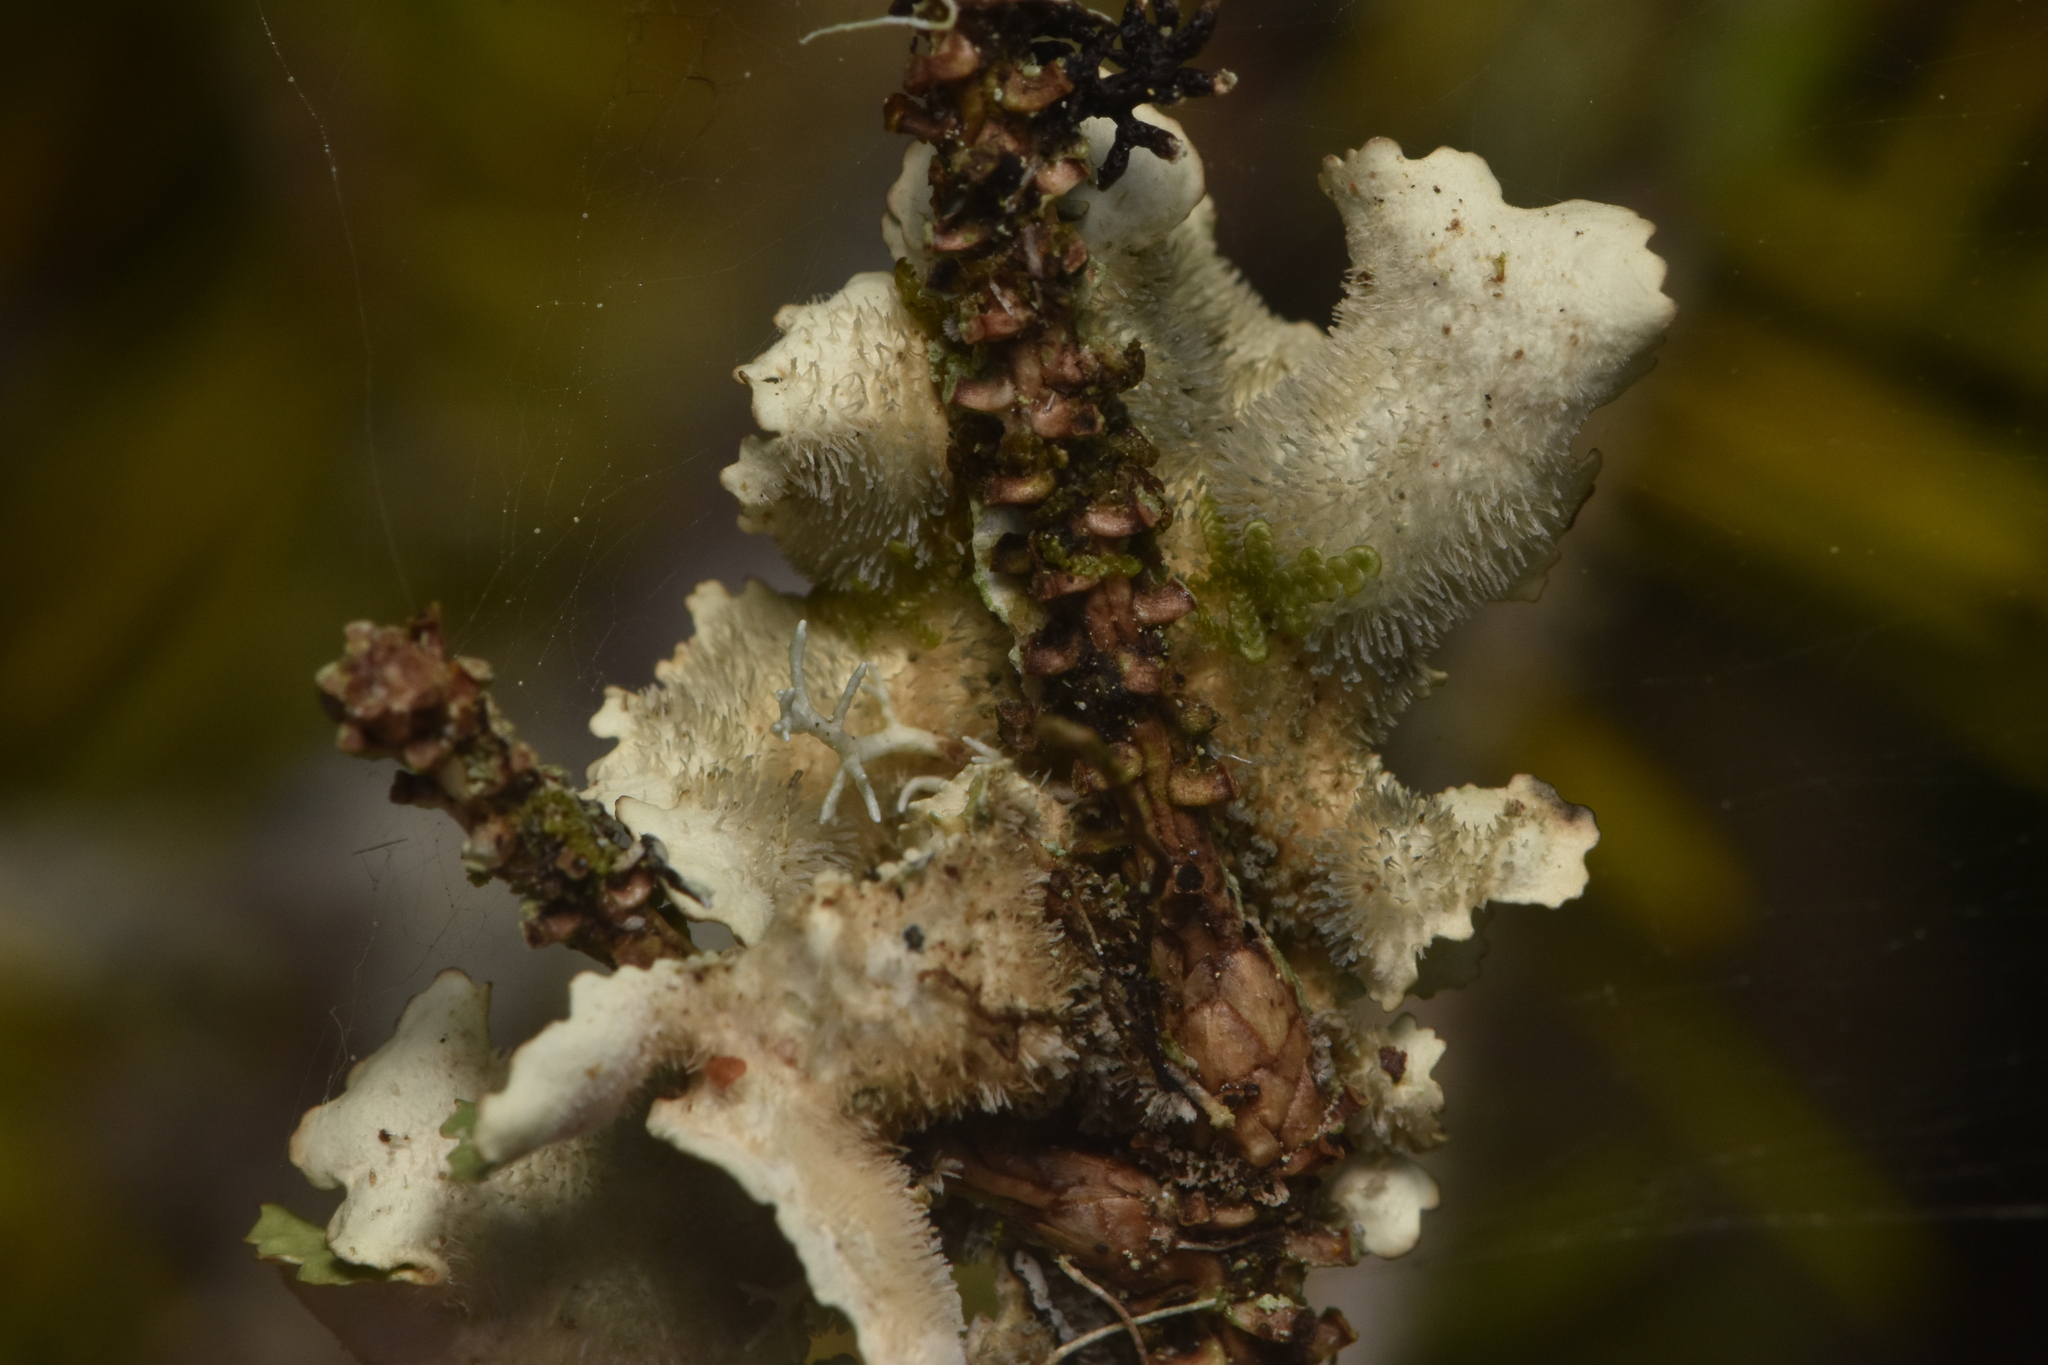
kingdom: Fungi
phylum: Ascomycota
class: Lecanoromycetes
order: Peltigerales
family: Lobariaceae
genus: Lobaria
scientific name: Lobaria oregana
